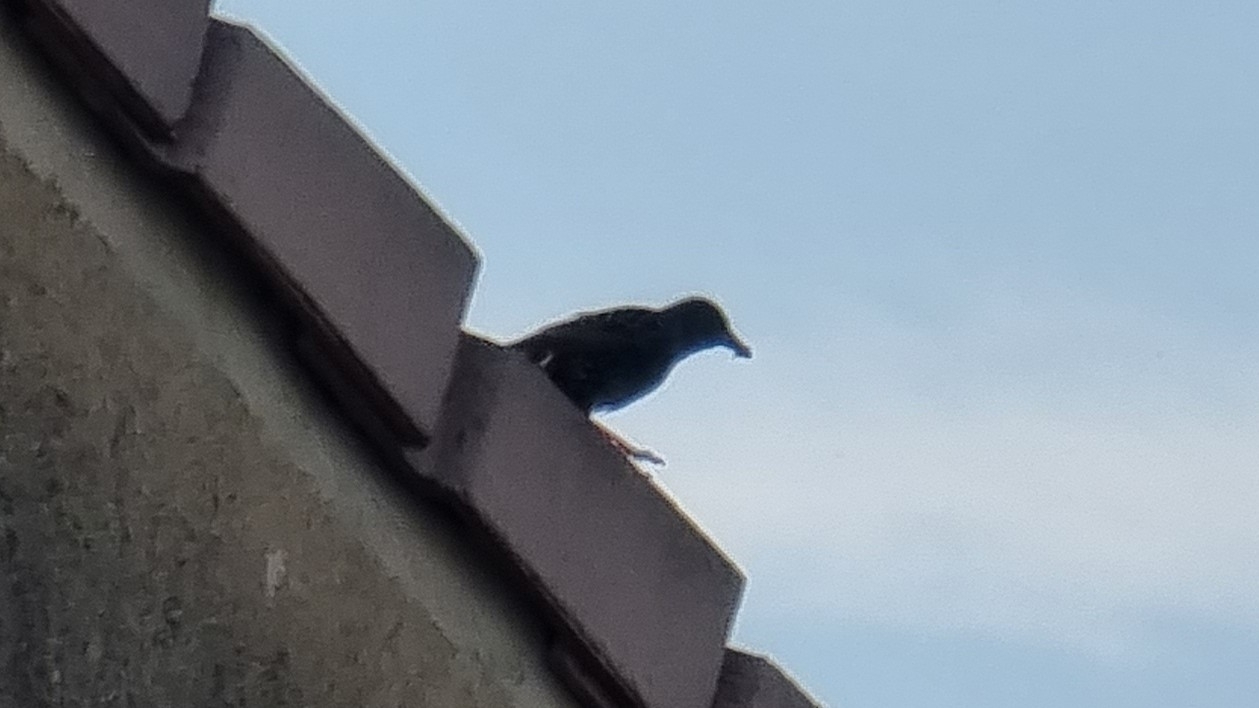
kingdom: Animalia
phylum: Chordata
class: Aves
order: Passeriformes
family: Sturnidae
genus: Sturnus
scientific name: Sturnus vulgaris
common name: Common starling
